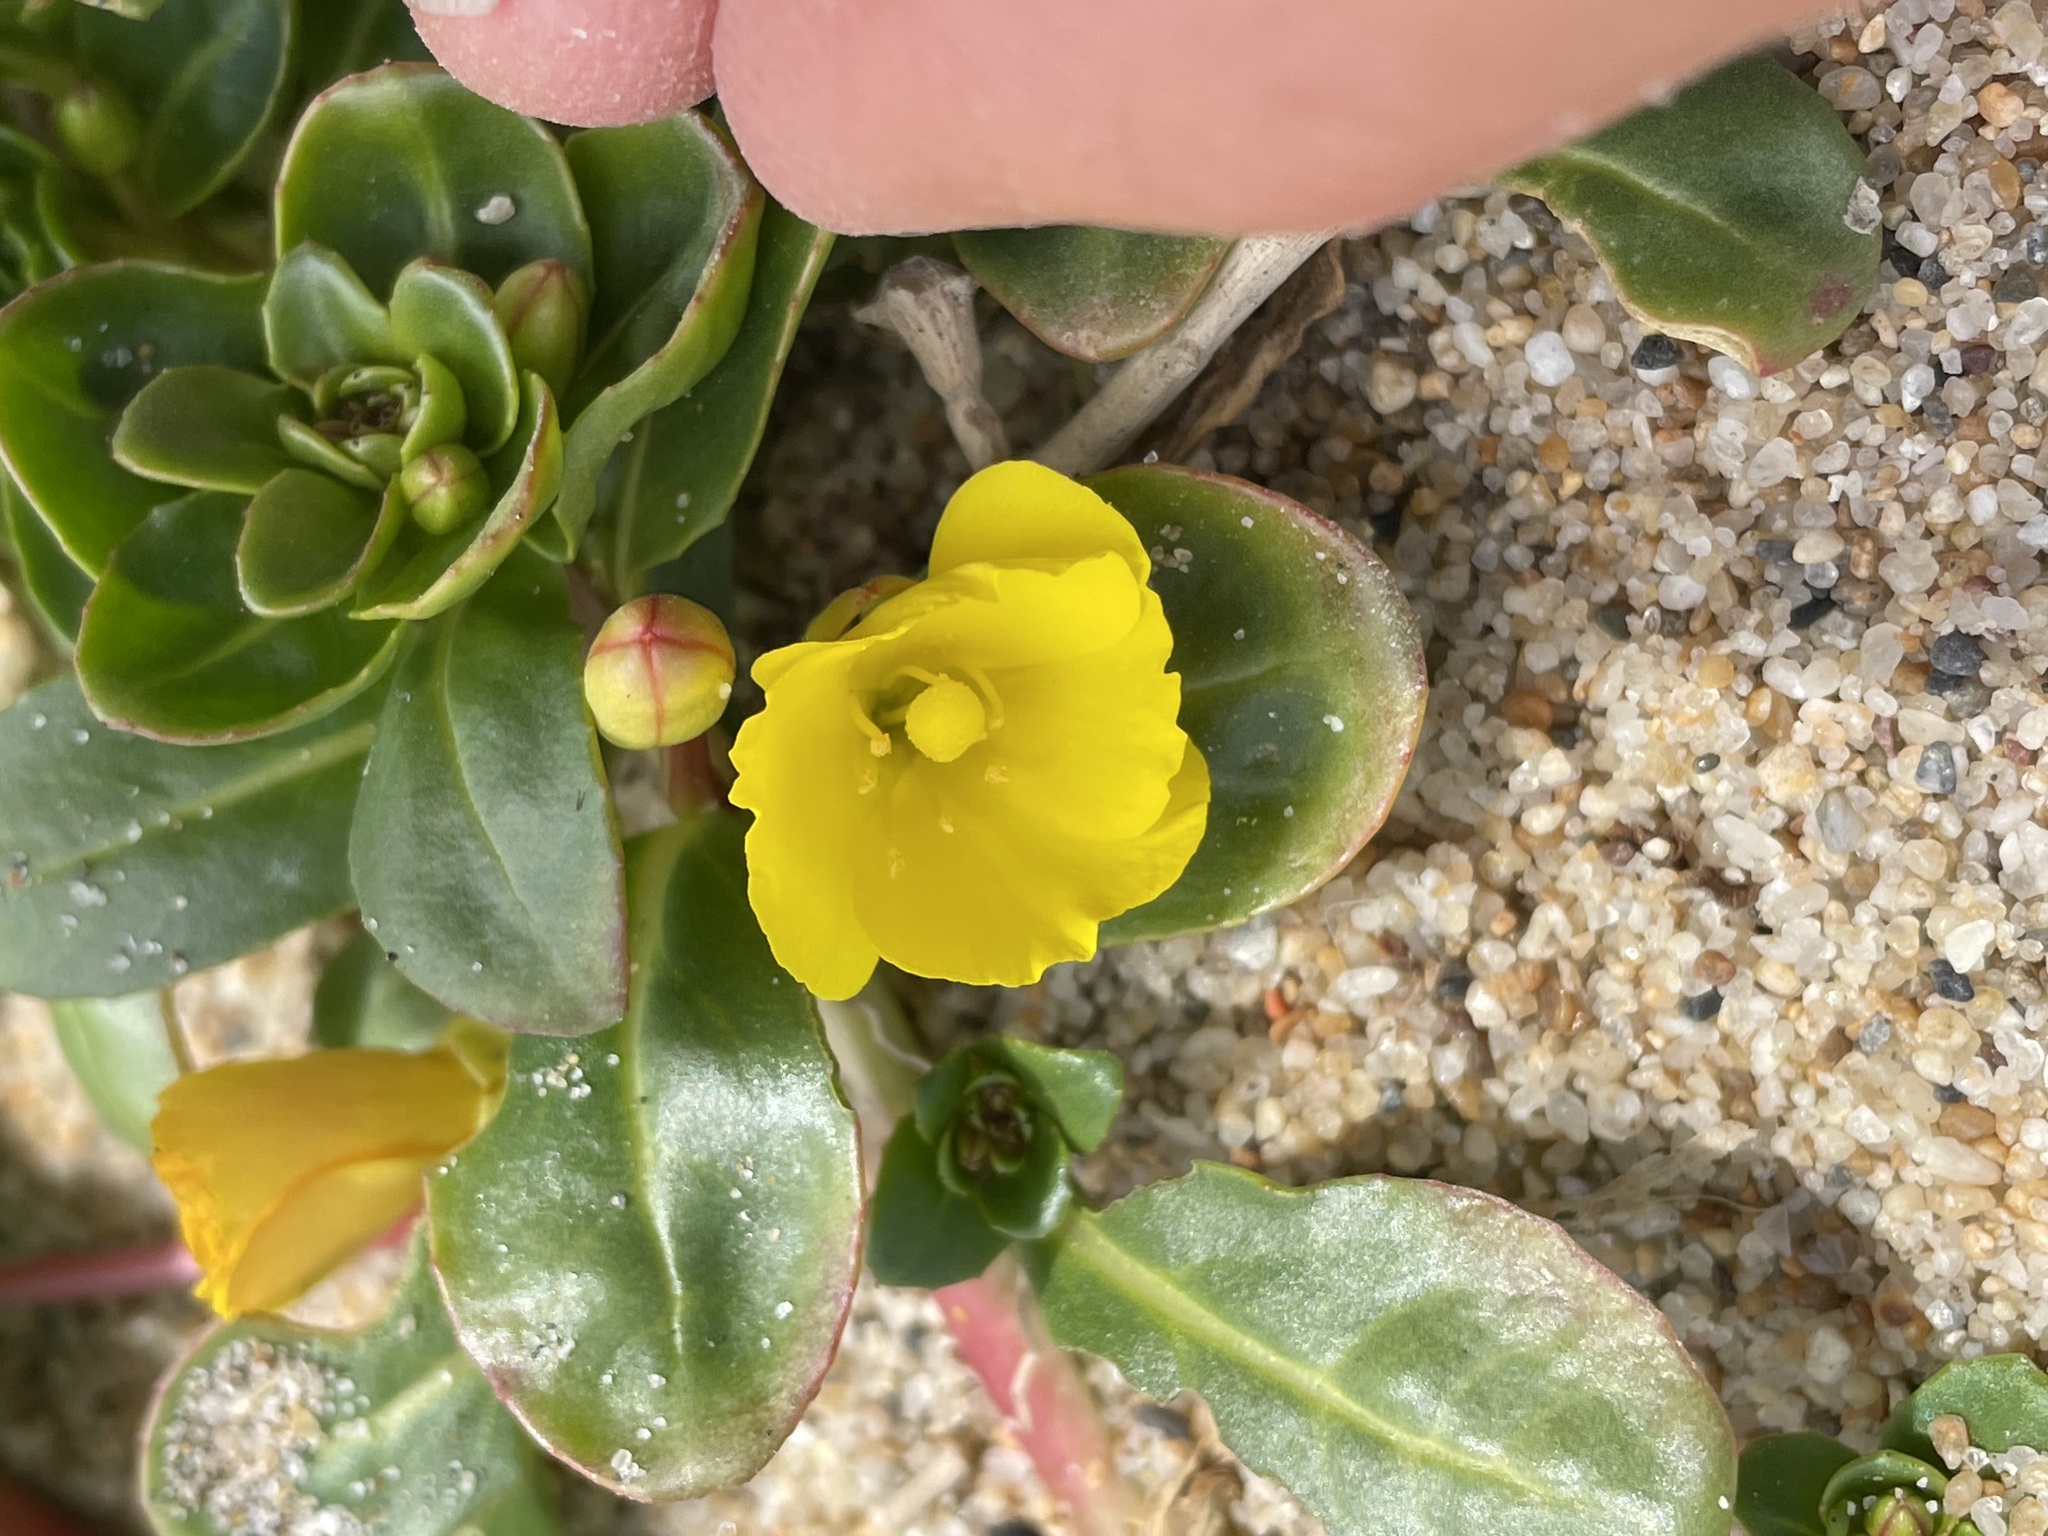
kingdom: Plantae
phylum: Tracheophyta
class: Magnoliopsida
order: Myrtales
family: Onagraceae
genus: Camissoniopsis
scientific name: Camissoniopsis cheiranthifolia
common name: Beach suncup
